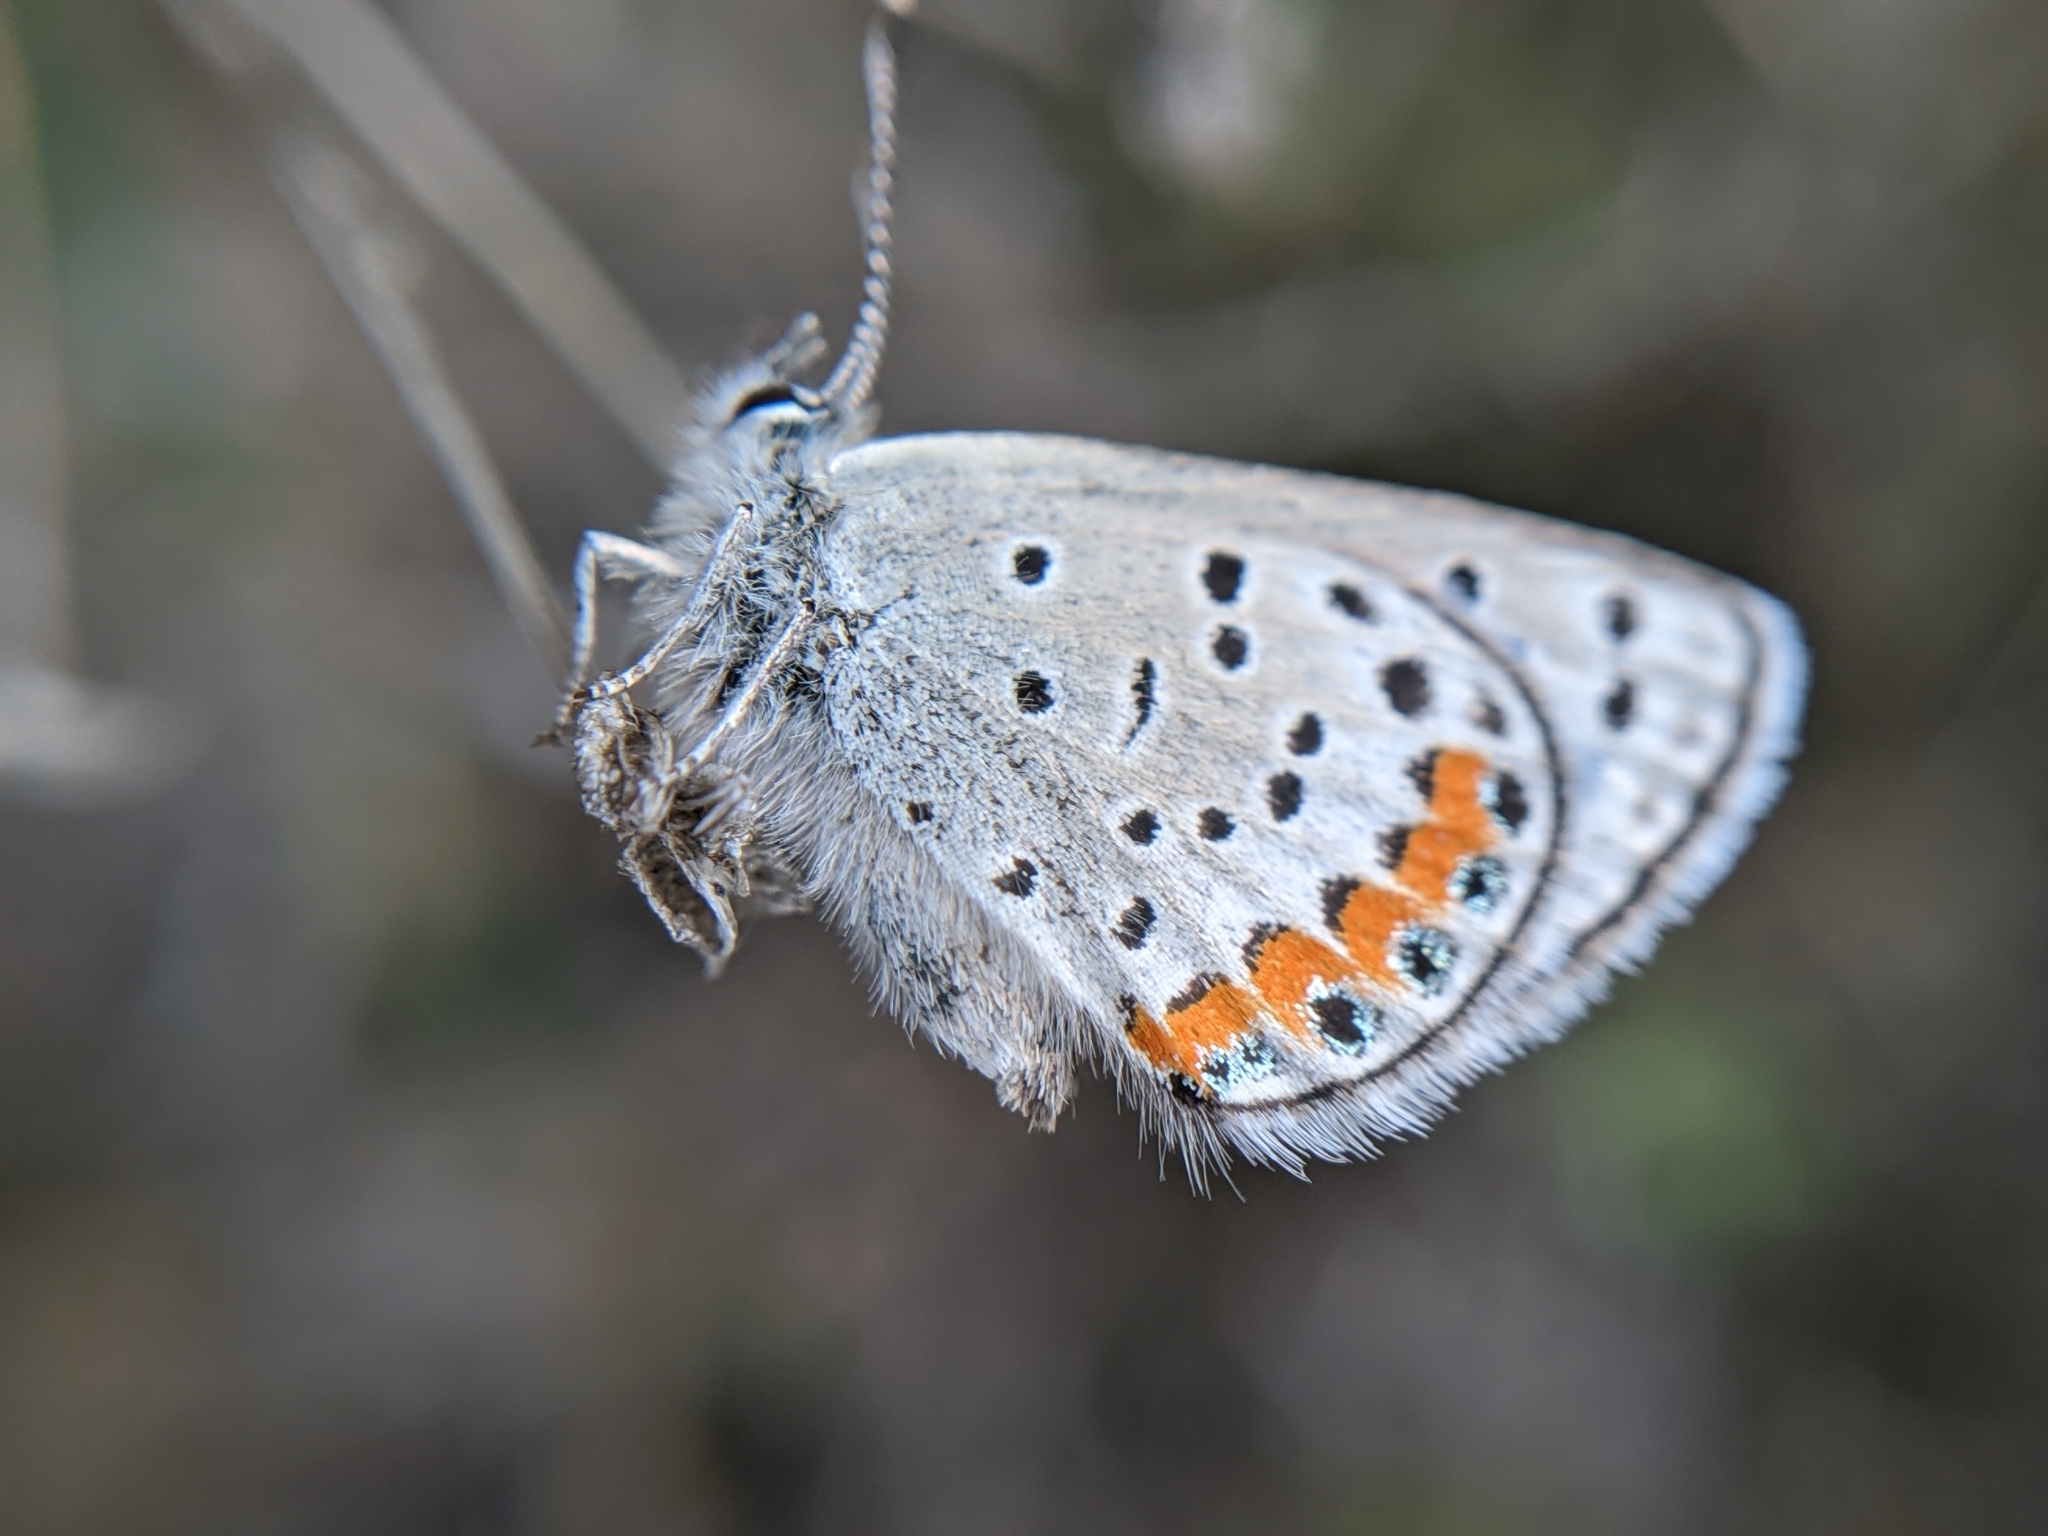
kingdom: Animalia
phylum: Arthropoda
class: Insecta
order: Lepidoptera
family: Lycaenidae
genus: Icaricia
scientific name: Icaricia acmon
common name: Acmon blue
